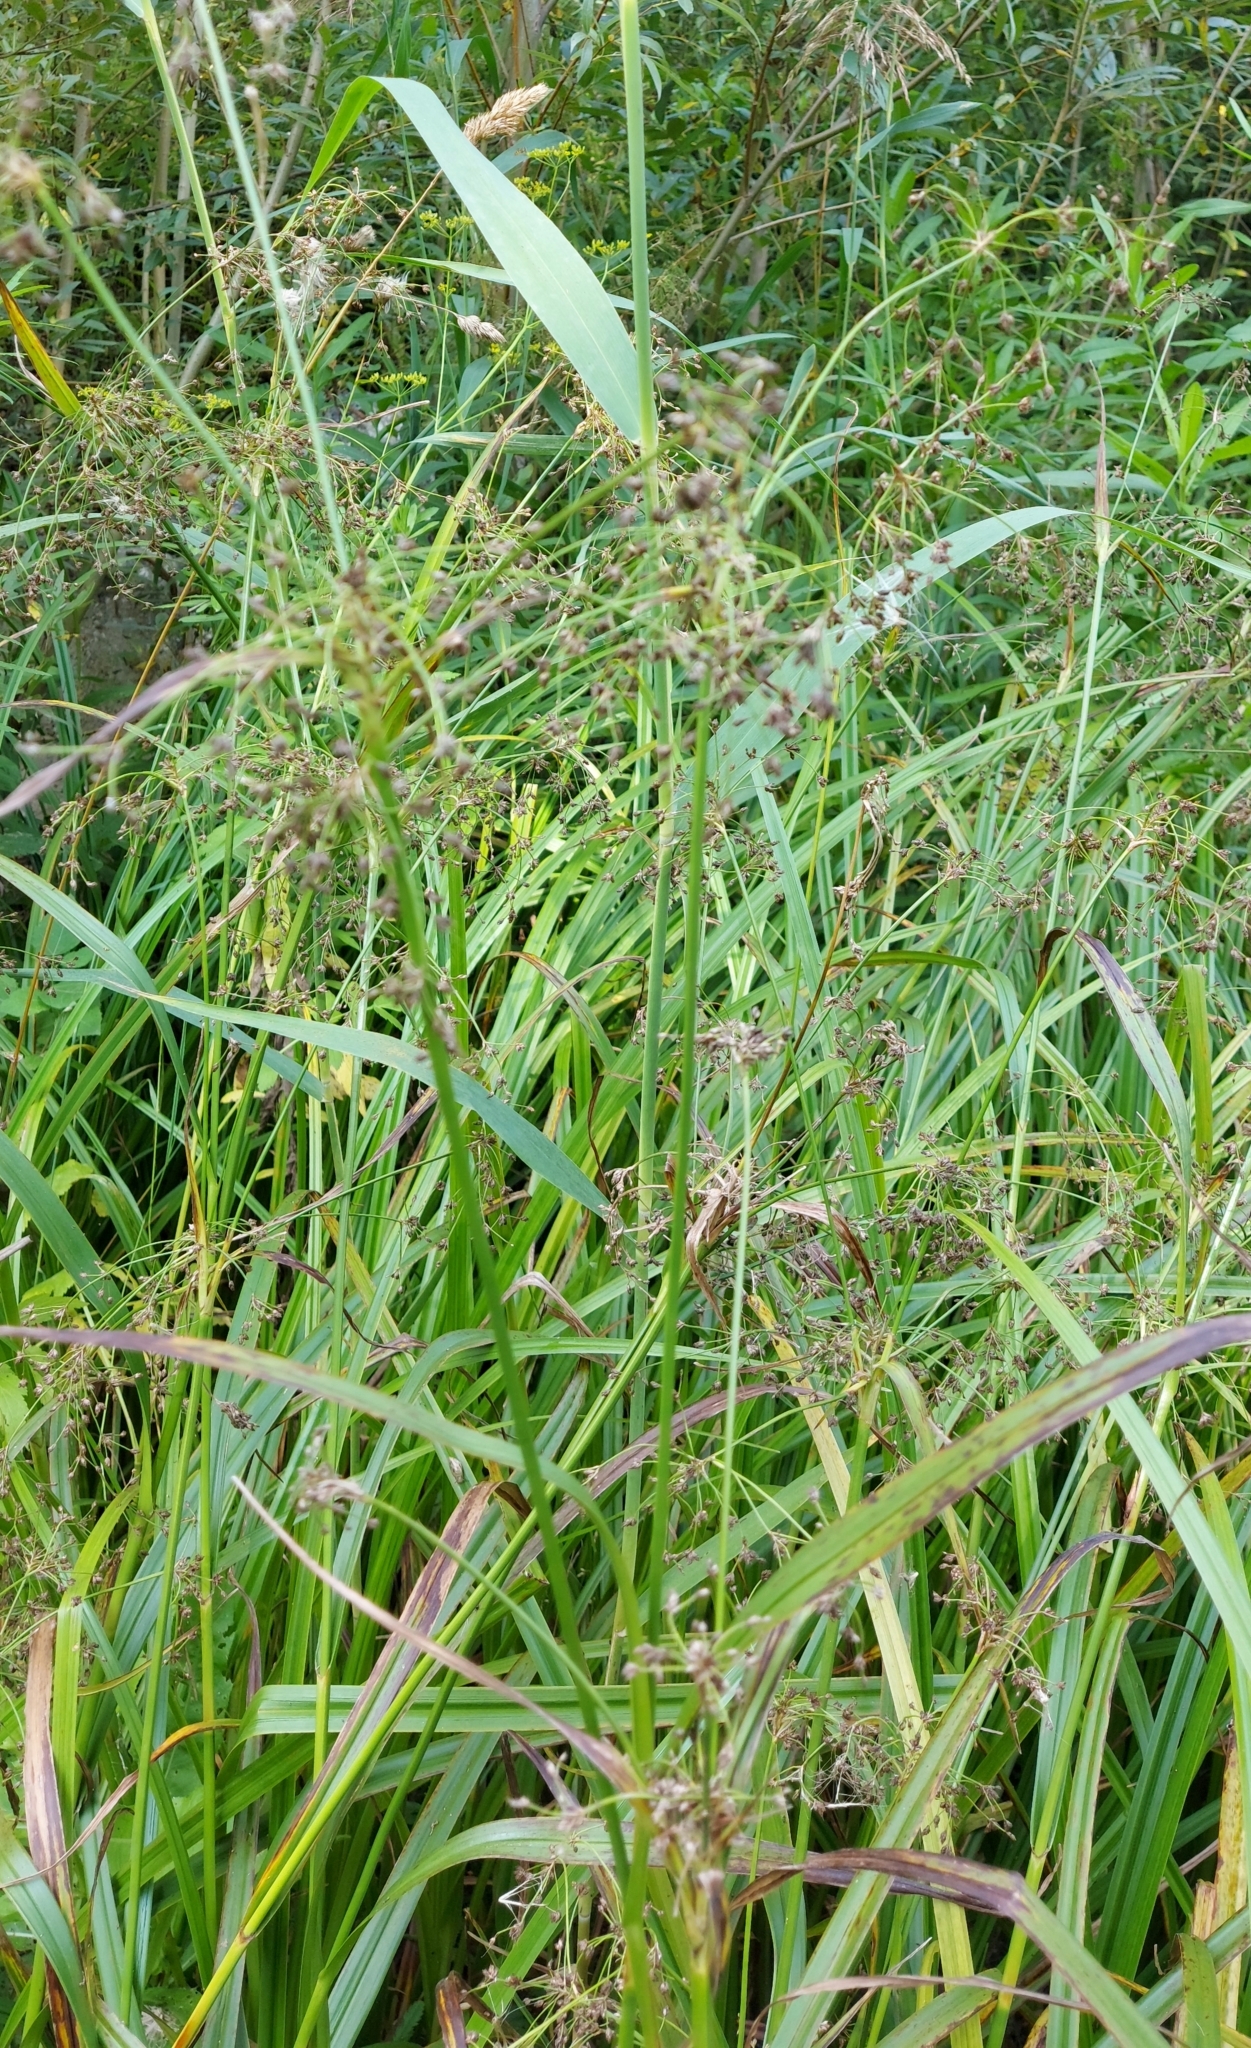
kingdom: Plantae
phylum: Tracheophyta
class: Liliopsida
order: Poales
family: Cyperaceae
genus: Scirpus
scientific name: Scirpus sylvaticus
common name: Wood club-rush
